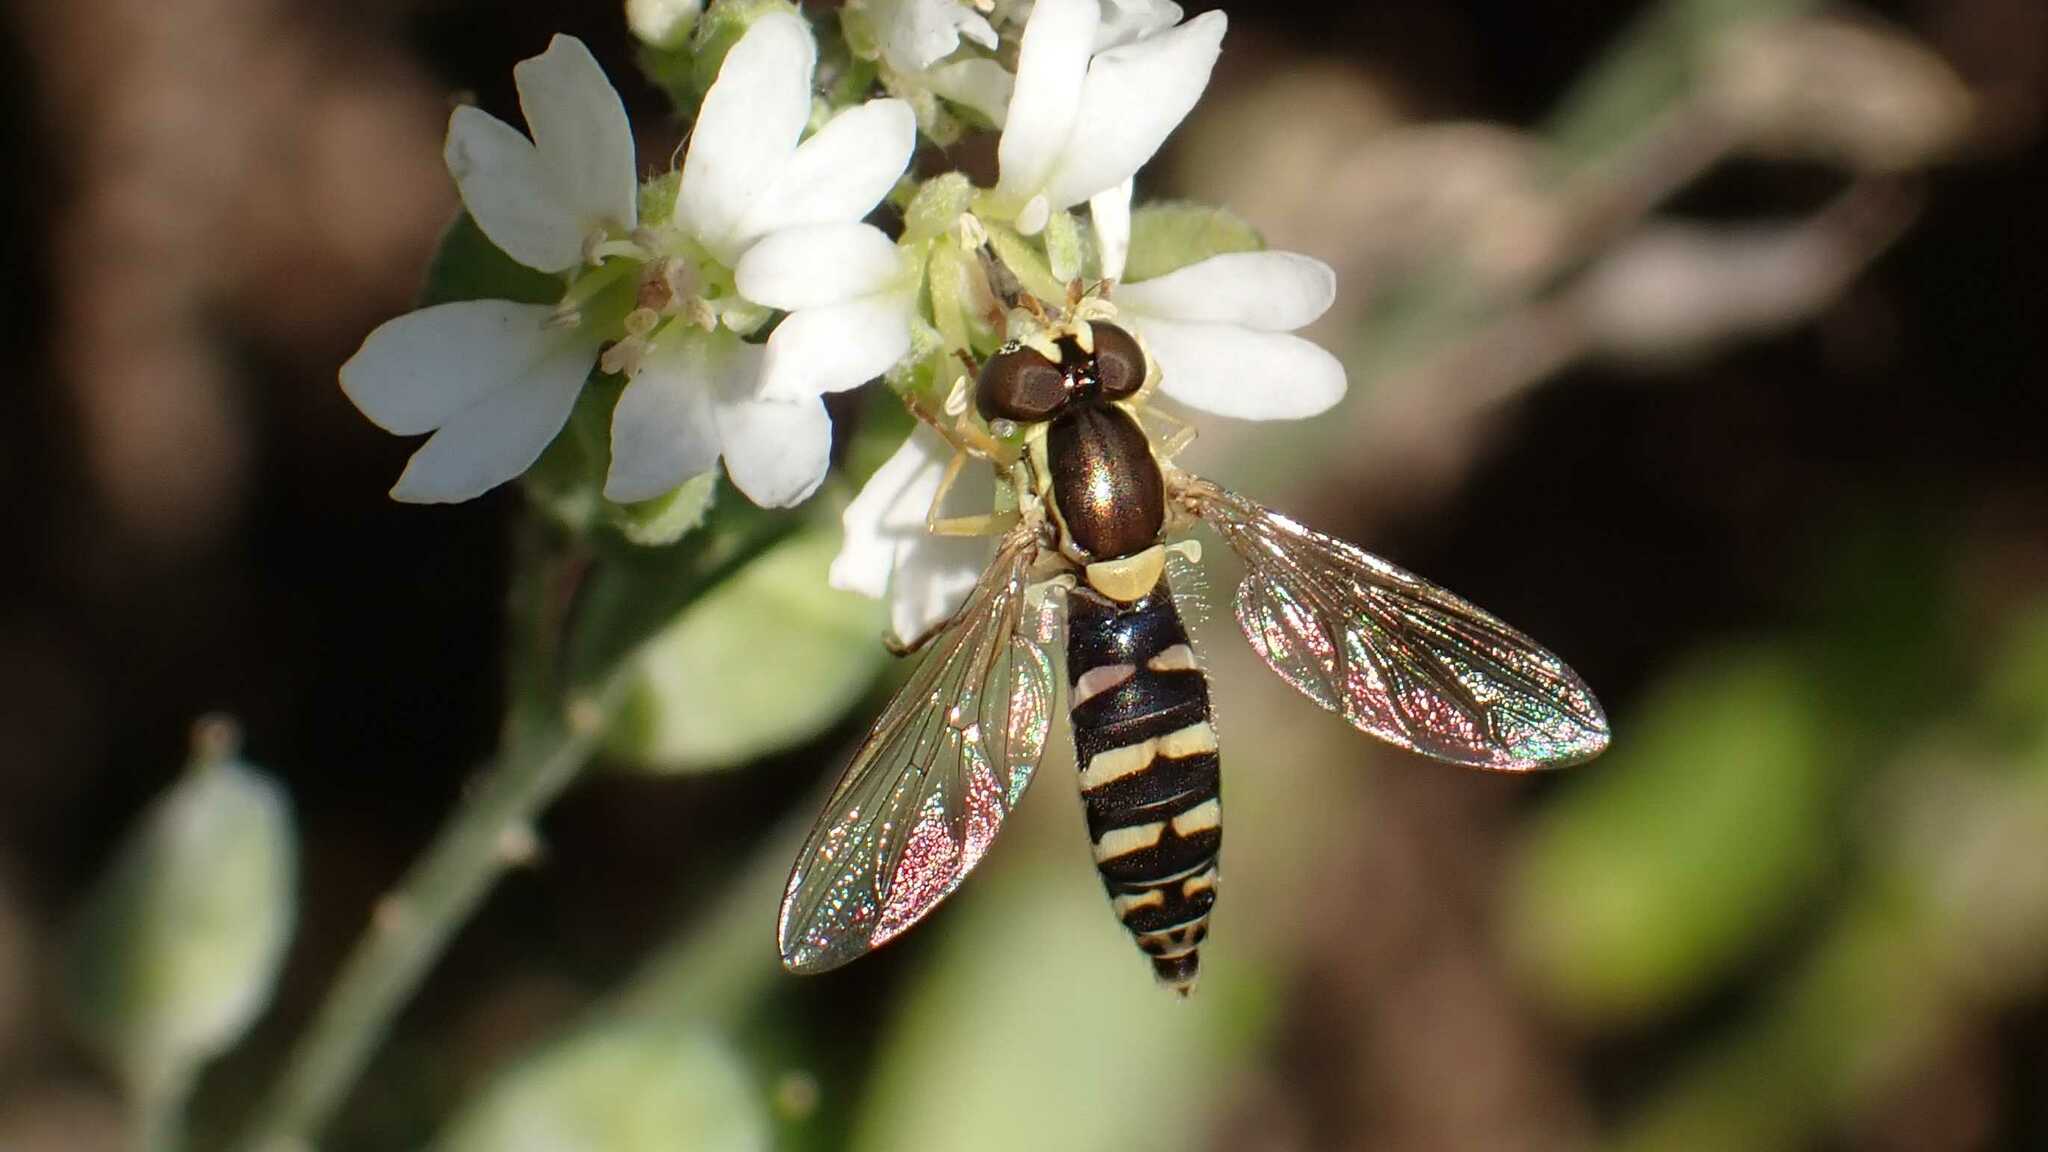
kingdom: Animalia
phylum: Arthropoda
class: Insecta
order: Diptera
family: Syrphidae
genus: Sphaerophoria
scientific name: Sphaerophoria
